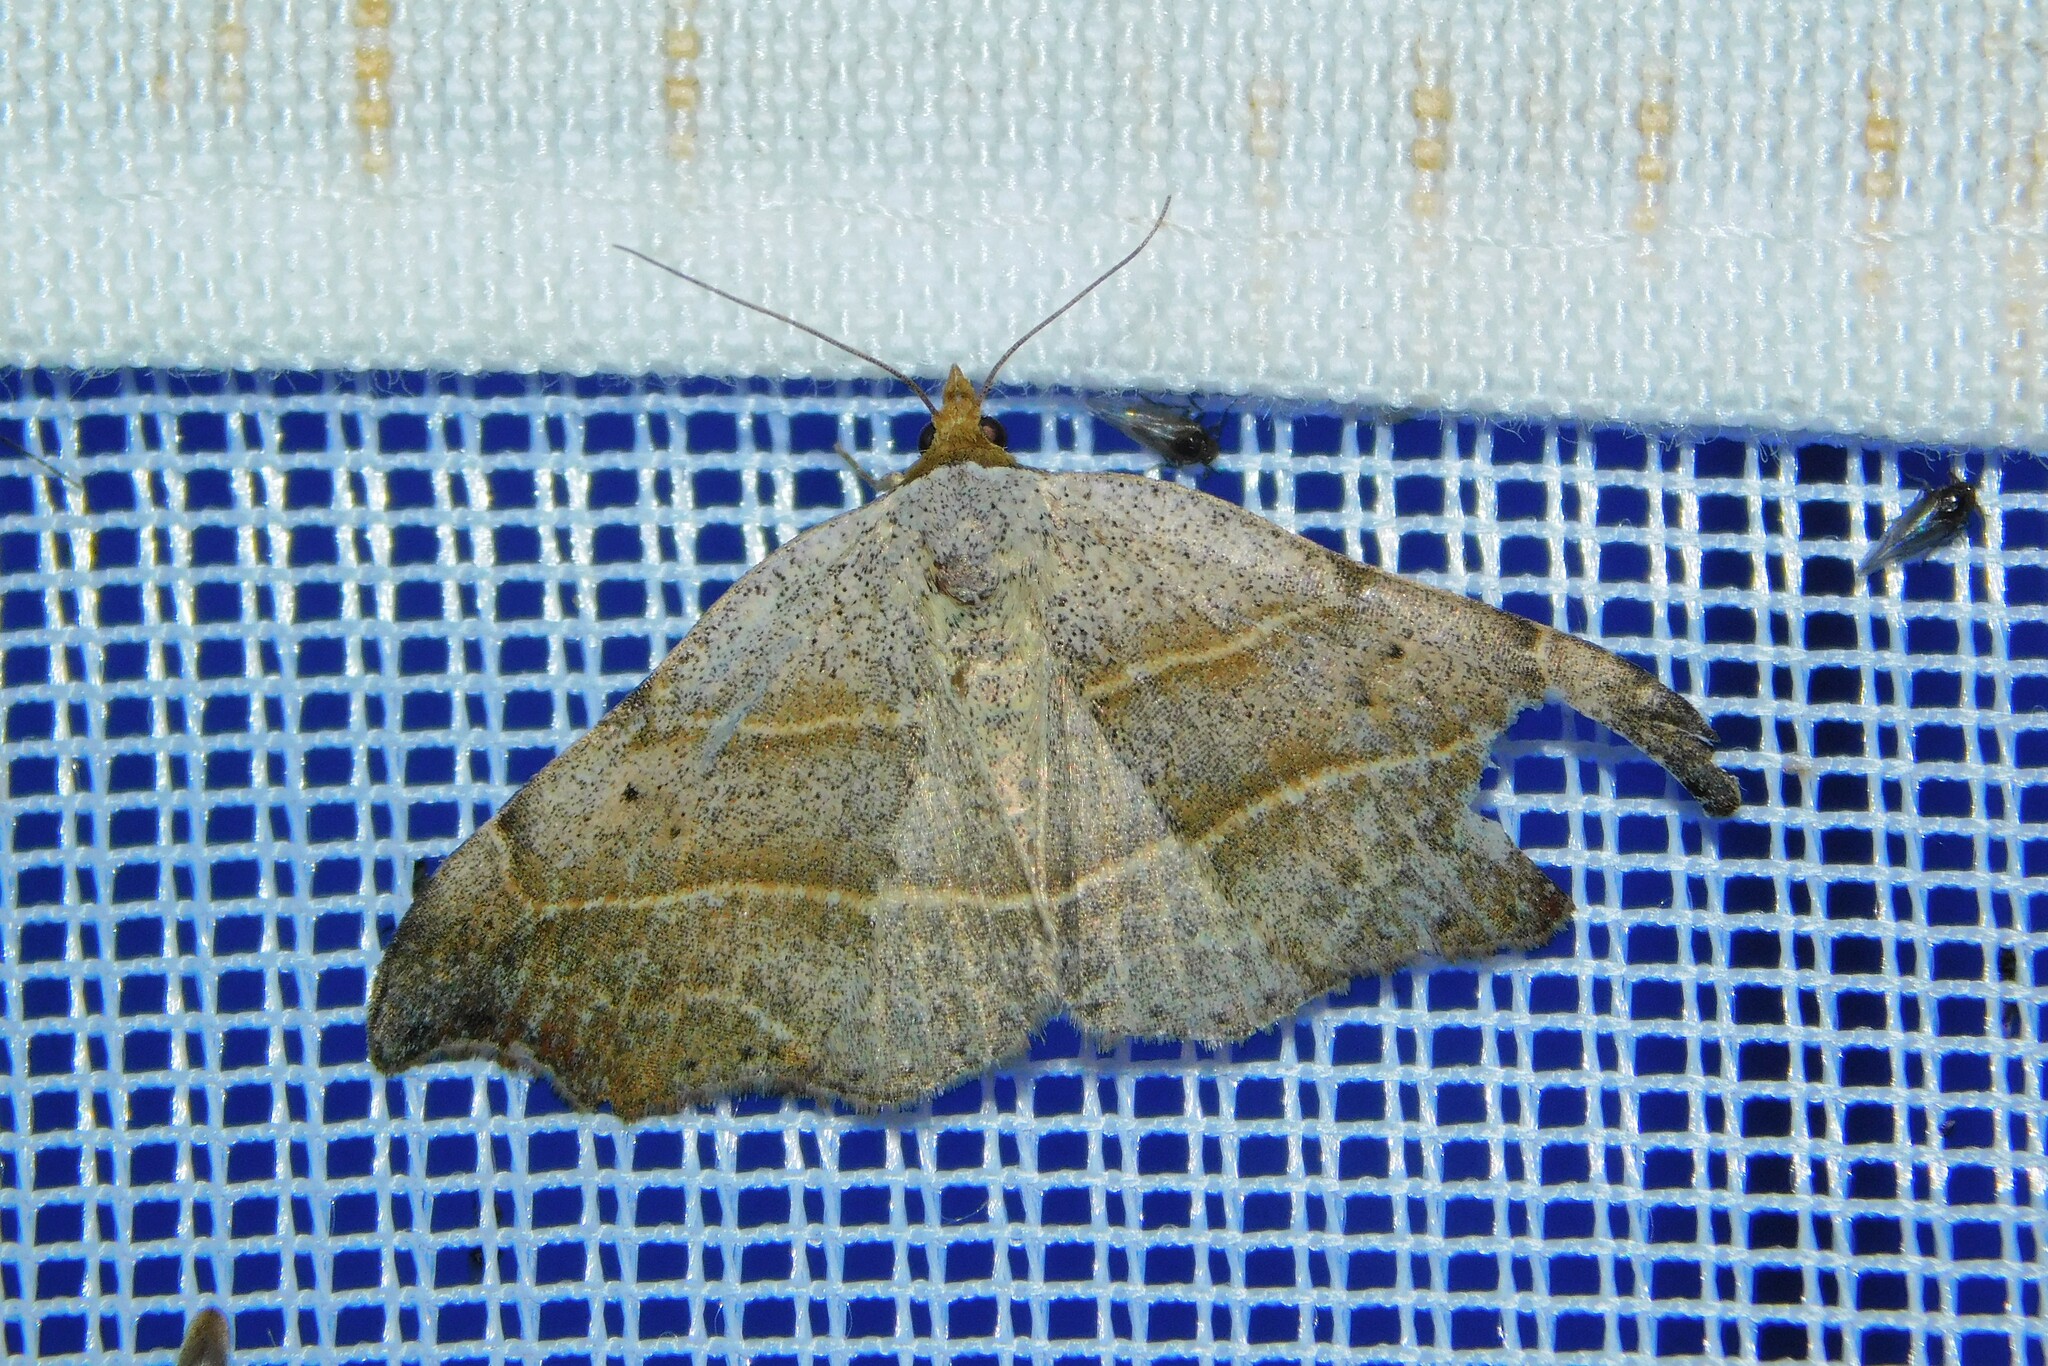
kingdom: Animalia
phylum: Arthropoda
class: Insecta
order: Lepidoptera
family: Erebidae
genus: Laspeyria
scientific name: Laspeyria flexula
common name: Beautiful hook-tip
